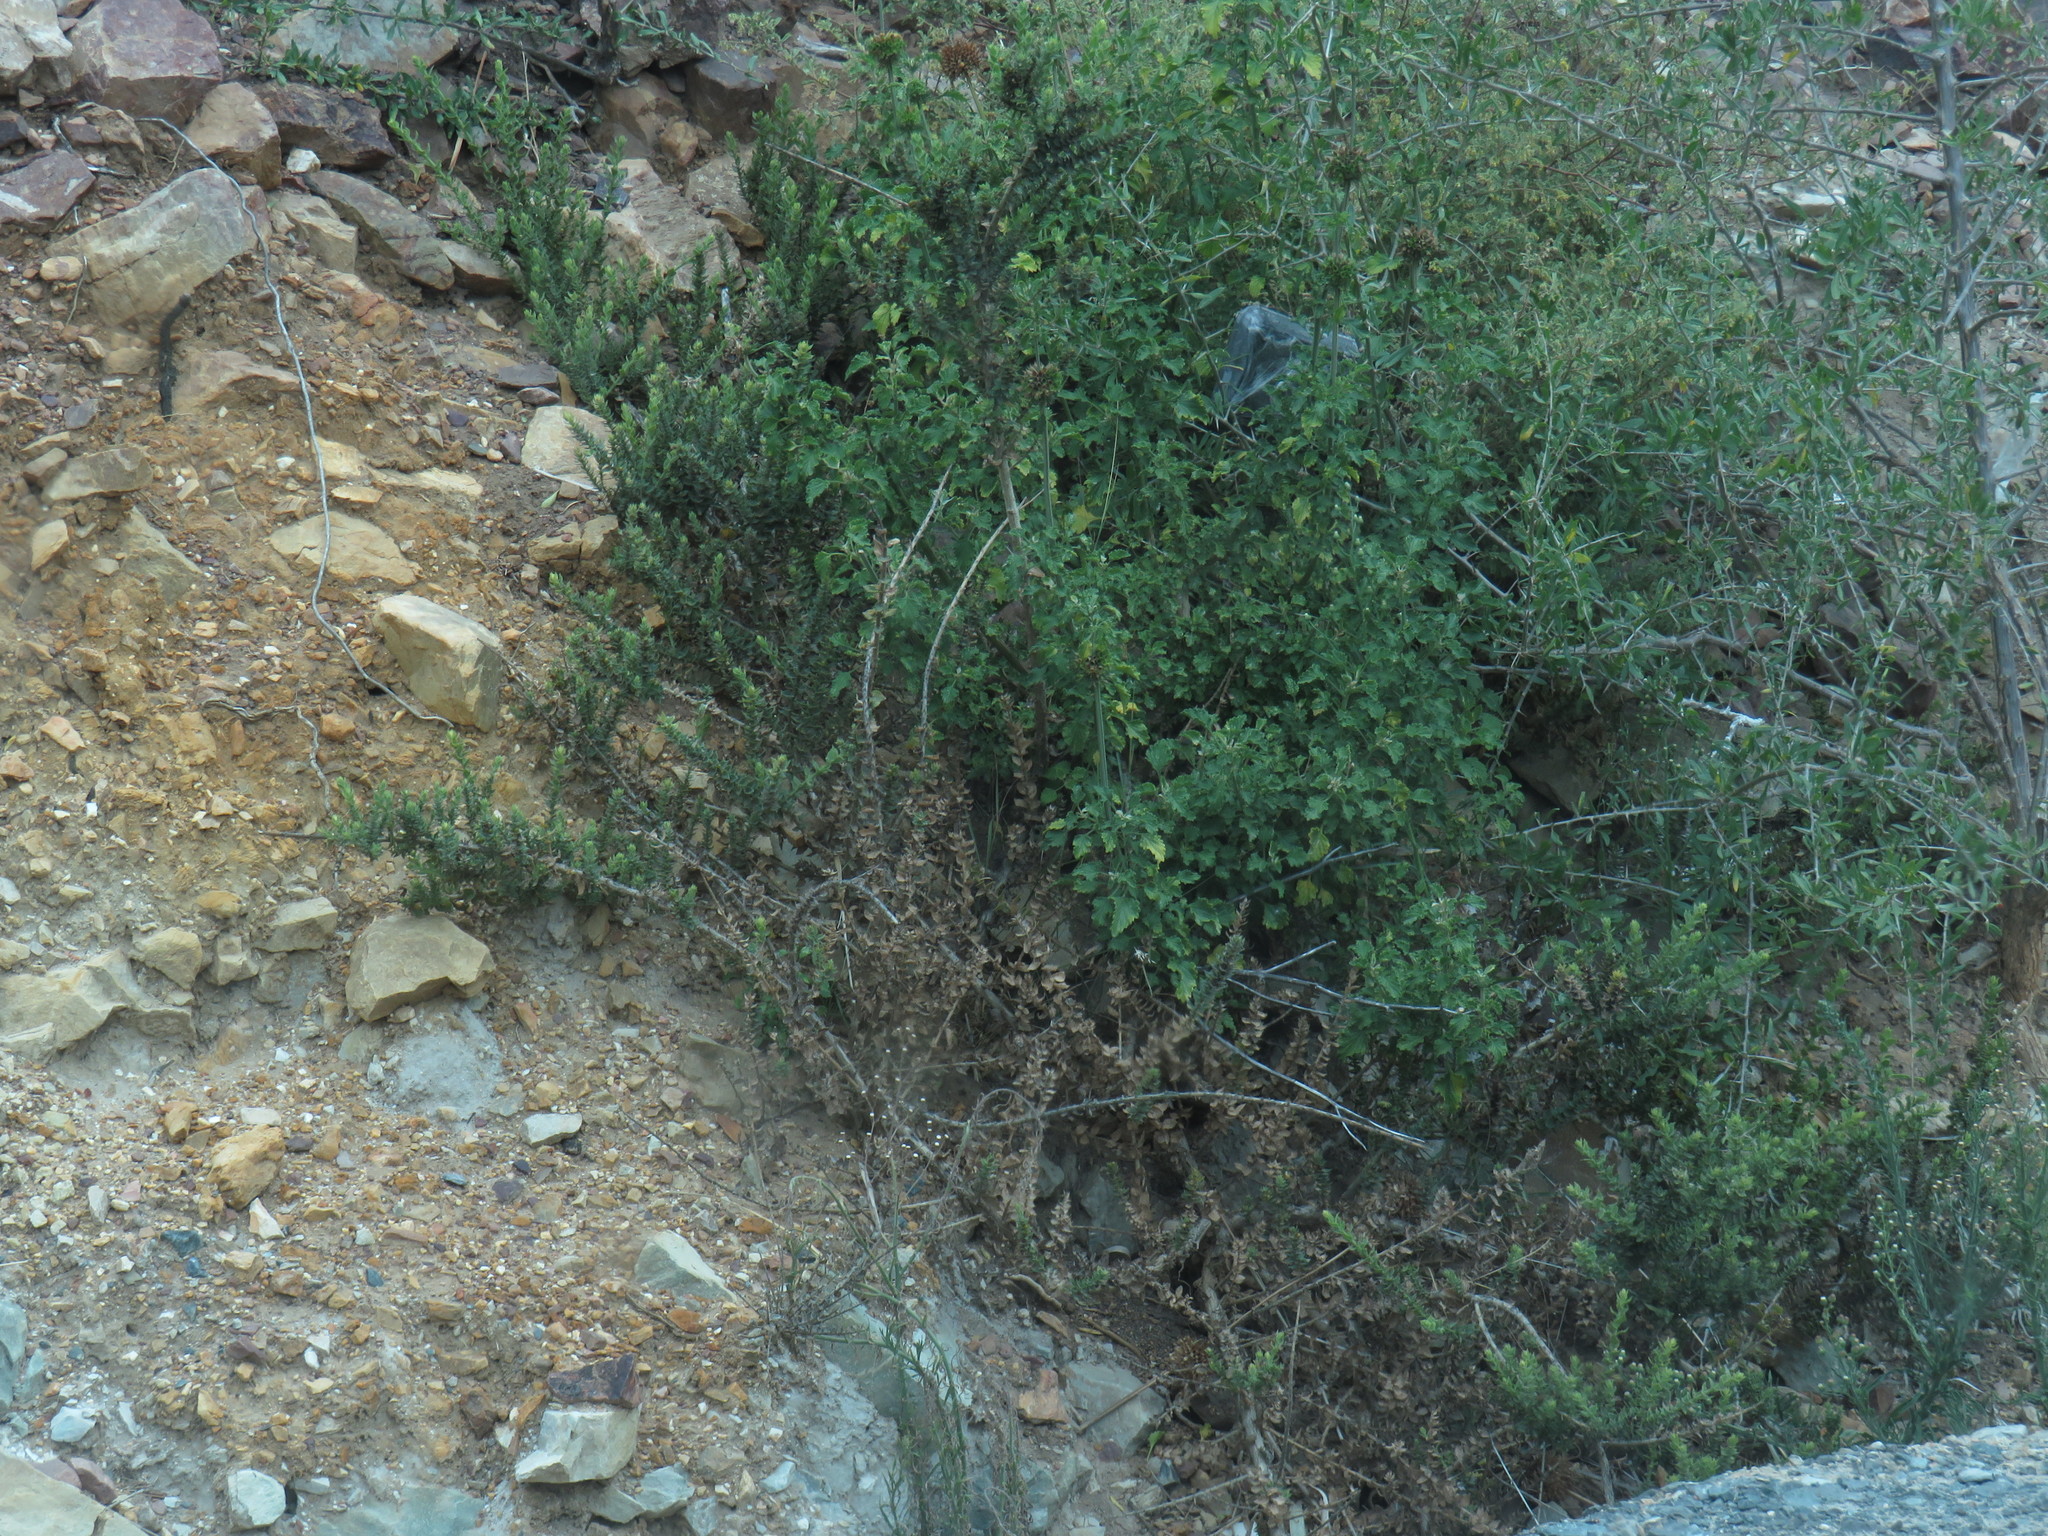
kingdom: Plantae
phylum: Tracheophyta
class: Magnoliopsida
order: Lamiales
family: Scrophulariaceae
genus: Oftia
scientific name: Oftia africana
